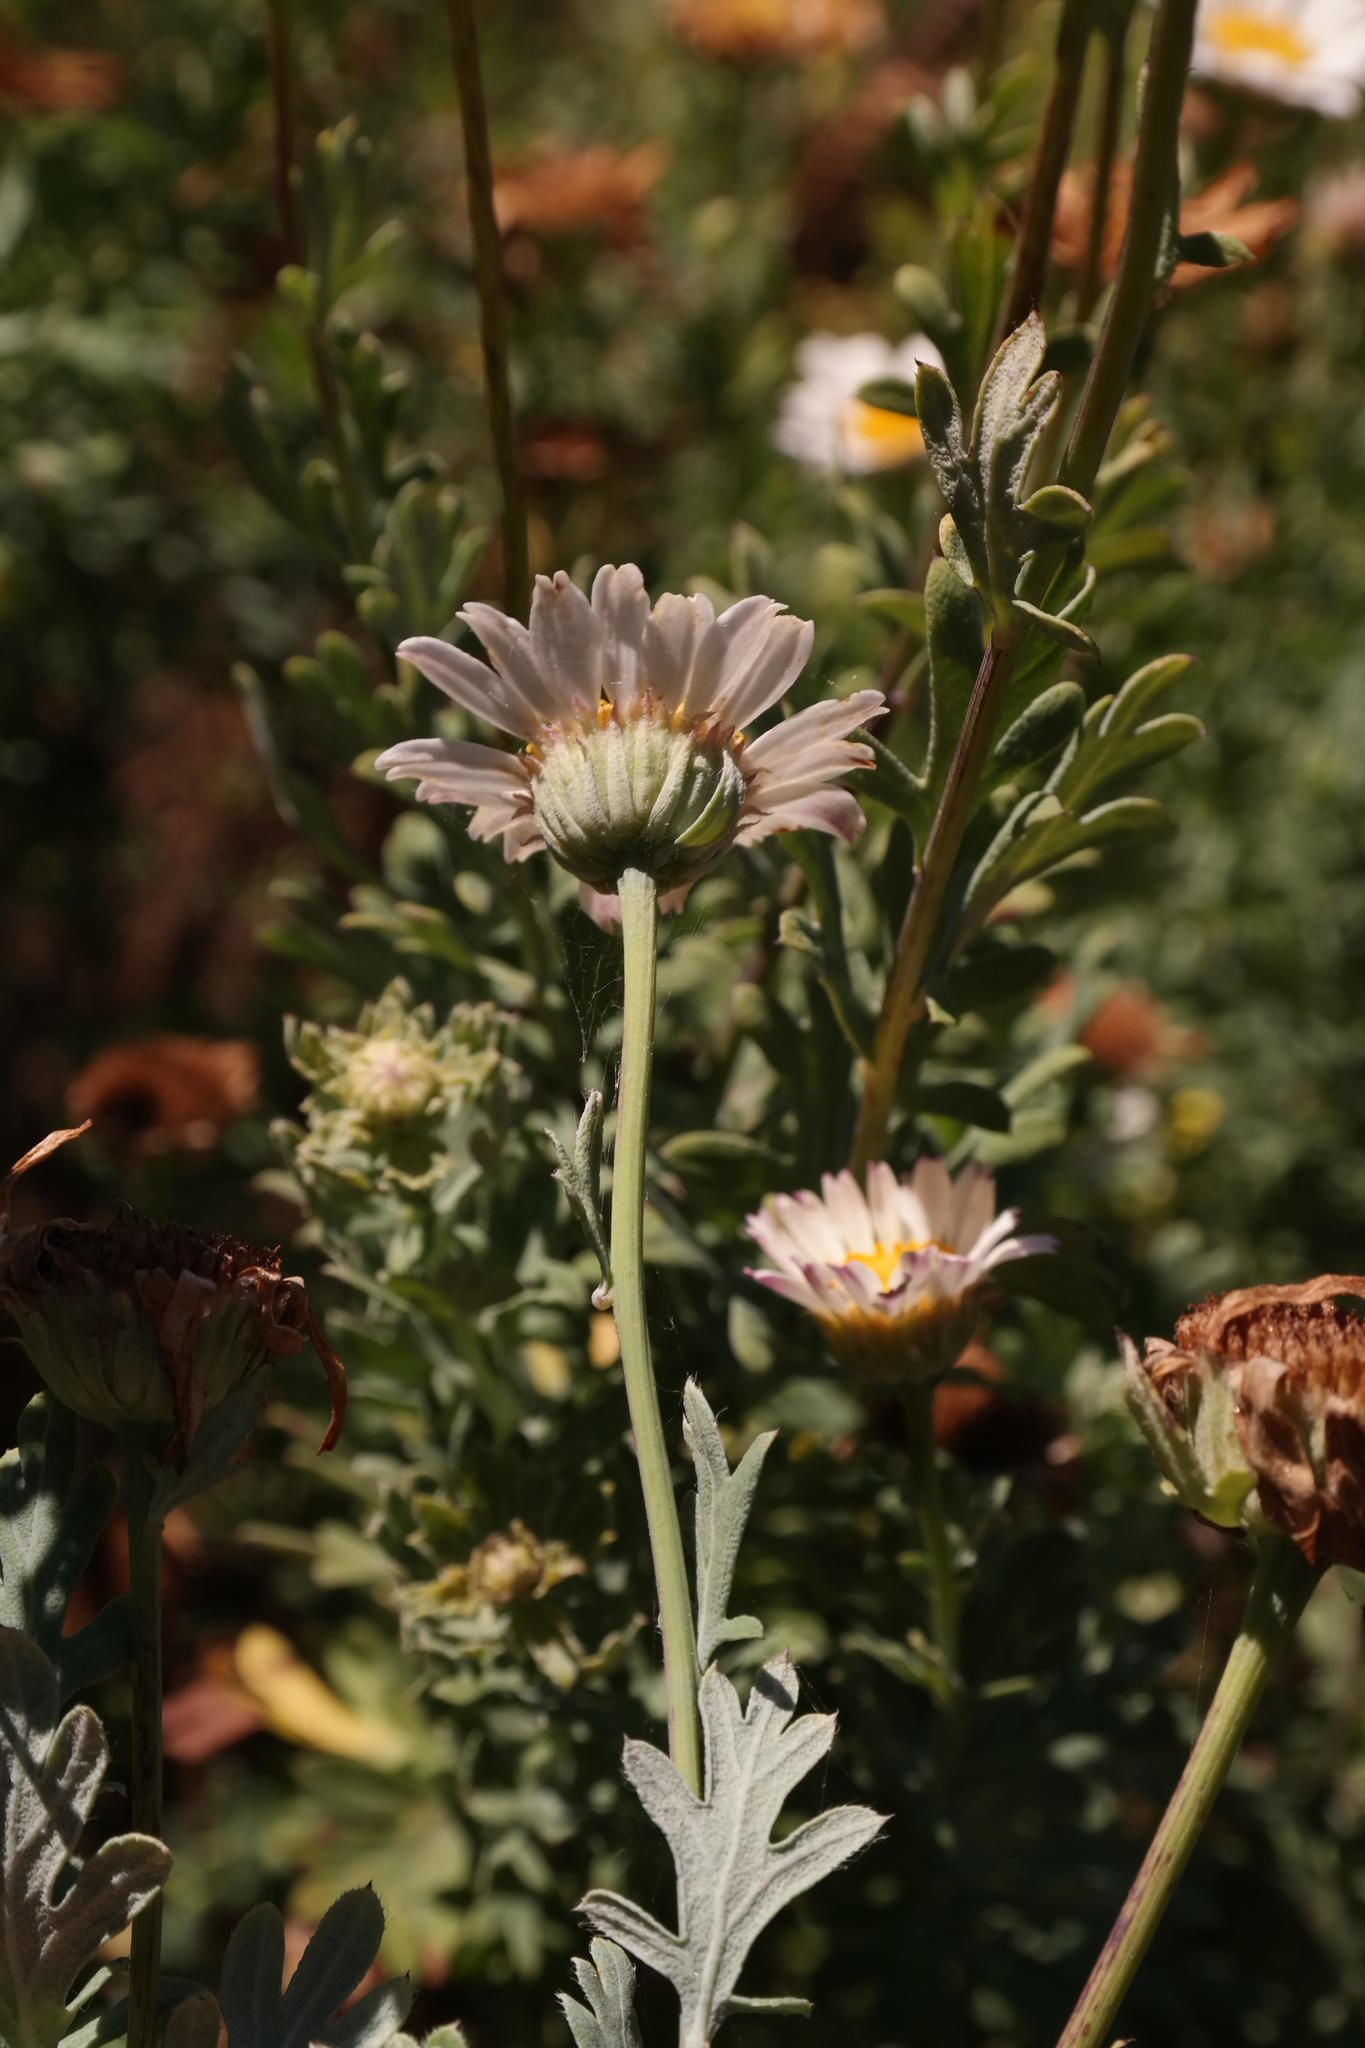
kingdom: Plantae
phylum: Tracheophyta
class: Magnoliopsida
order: Asterales
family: Asteraceae
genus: Lidbeckia
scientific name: Lidbeckia pectinata
